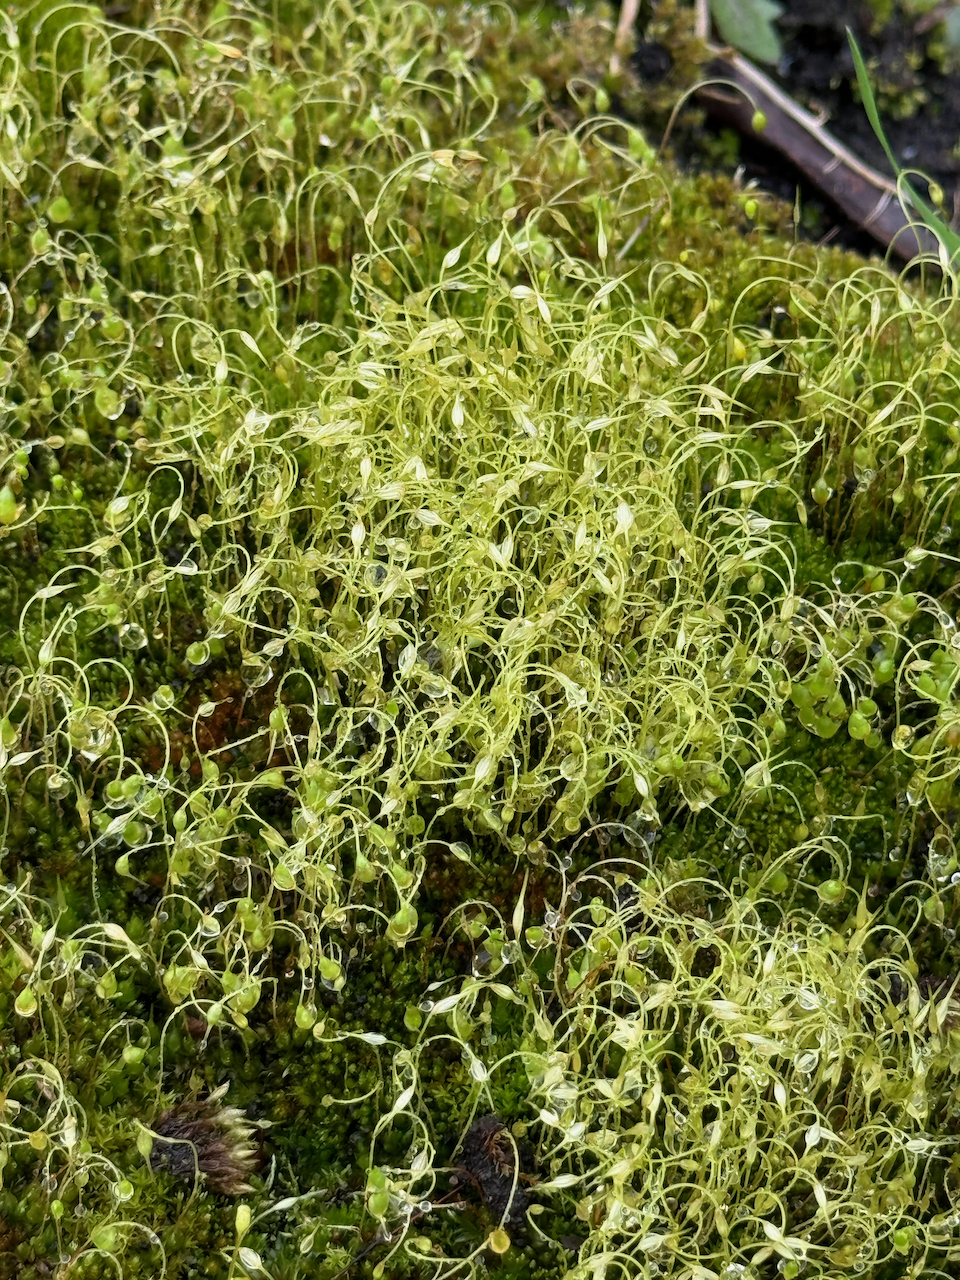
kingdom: Plantae
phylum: Bryophyta
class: Bryopsida
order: Funariales
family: Funariaceae
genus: Funaria
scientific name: Funaria hygrometrica
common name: Common cord moss
